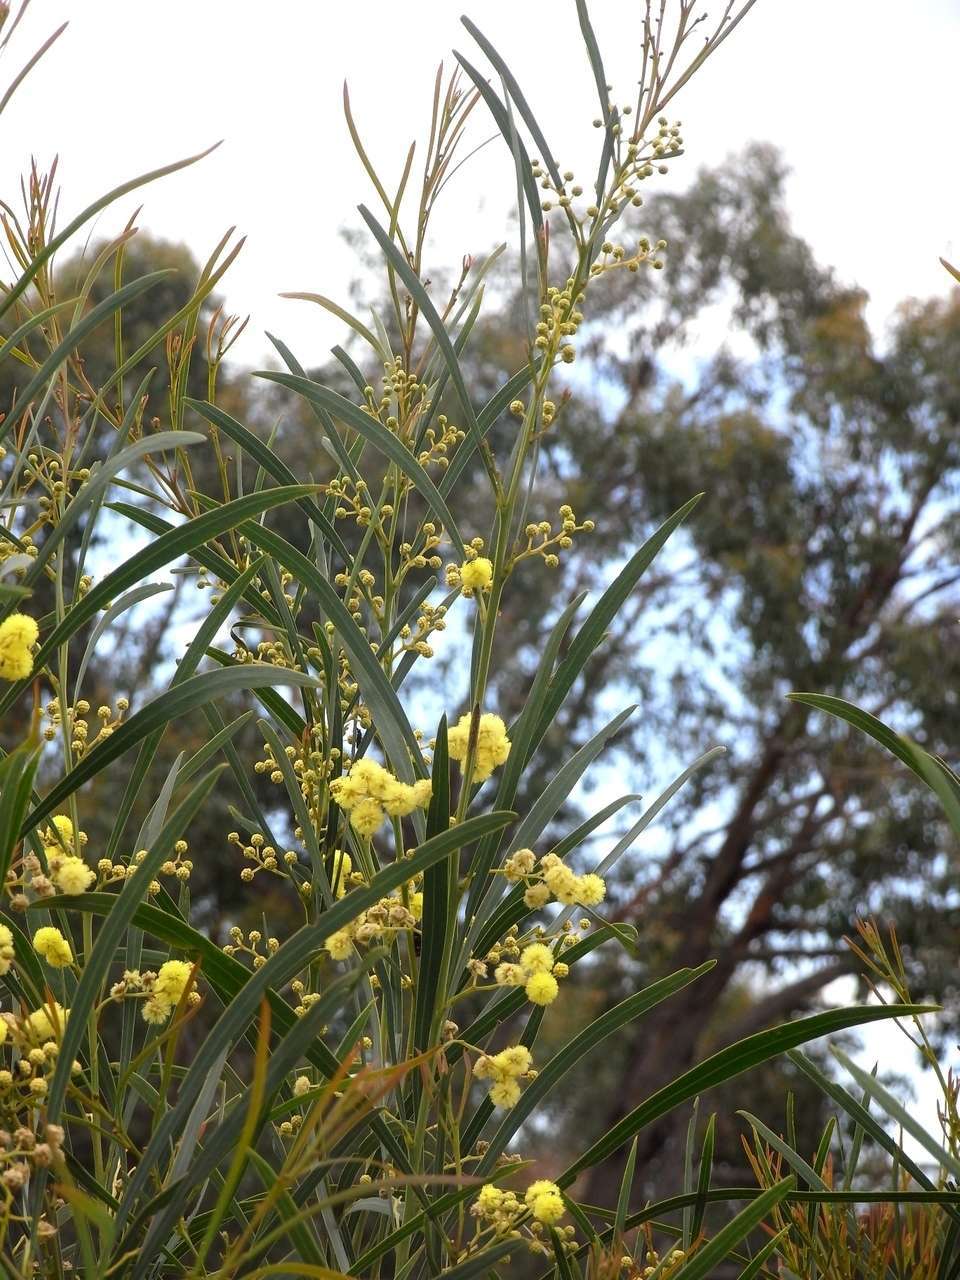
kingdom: Plantae
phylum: Tracheophyta
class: Magnoliopsida
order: Fabales
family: Fabaceae
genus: Acacia
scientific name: Acacia provincialis
